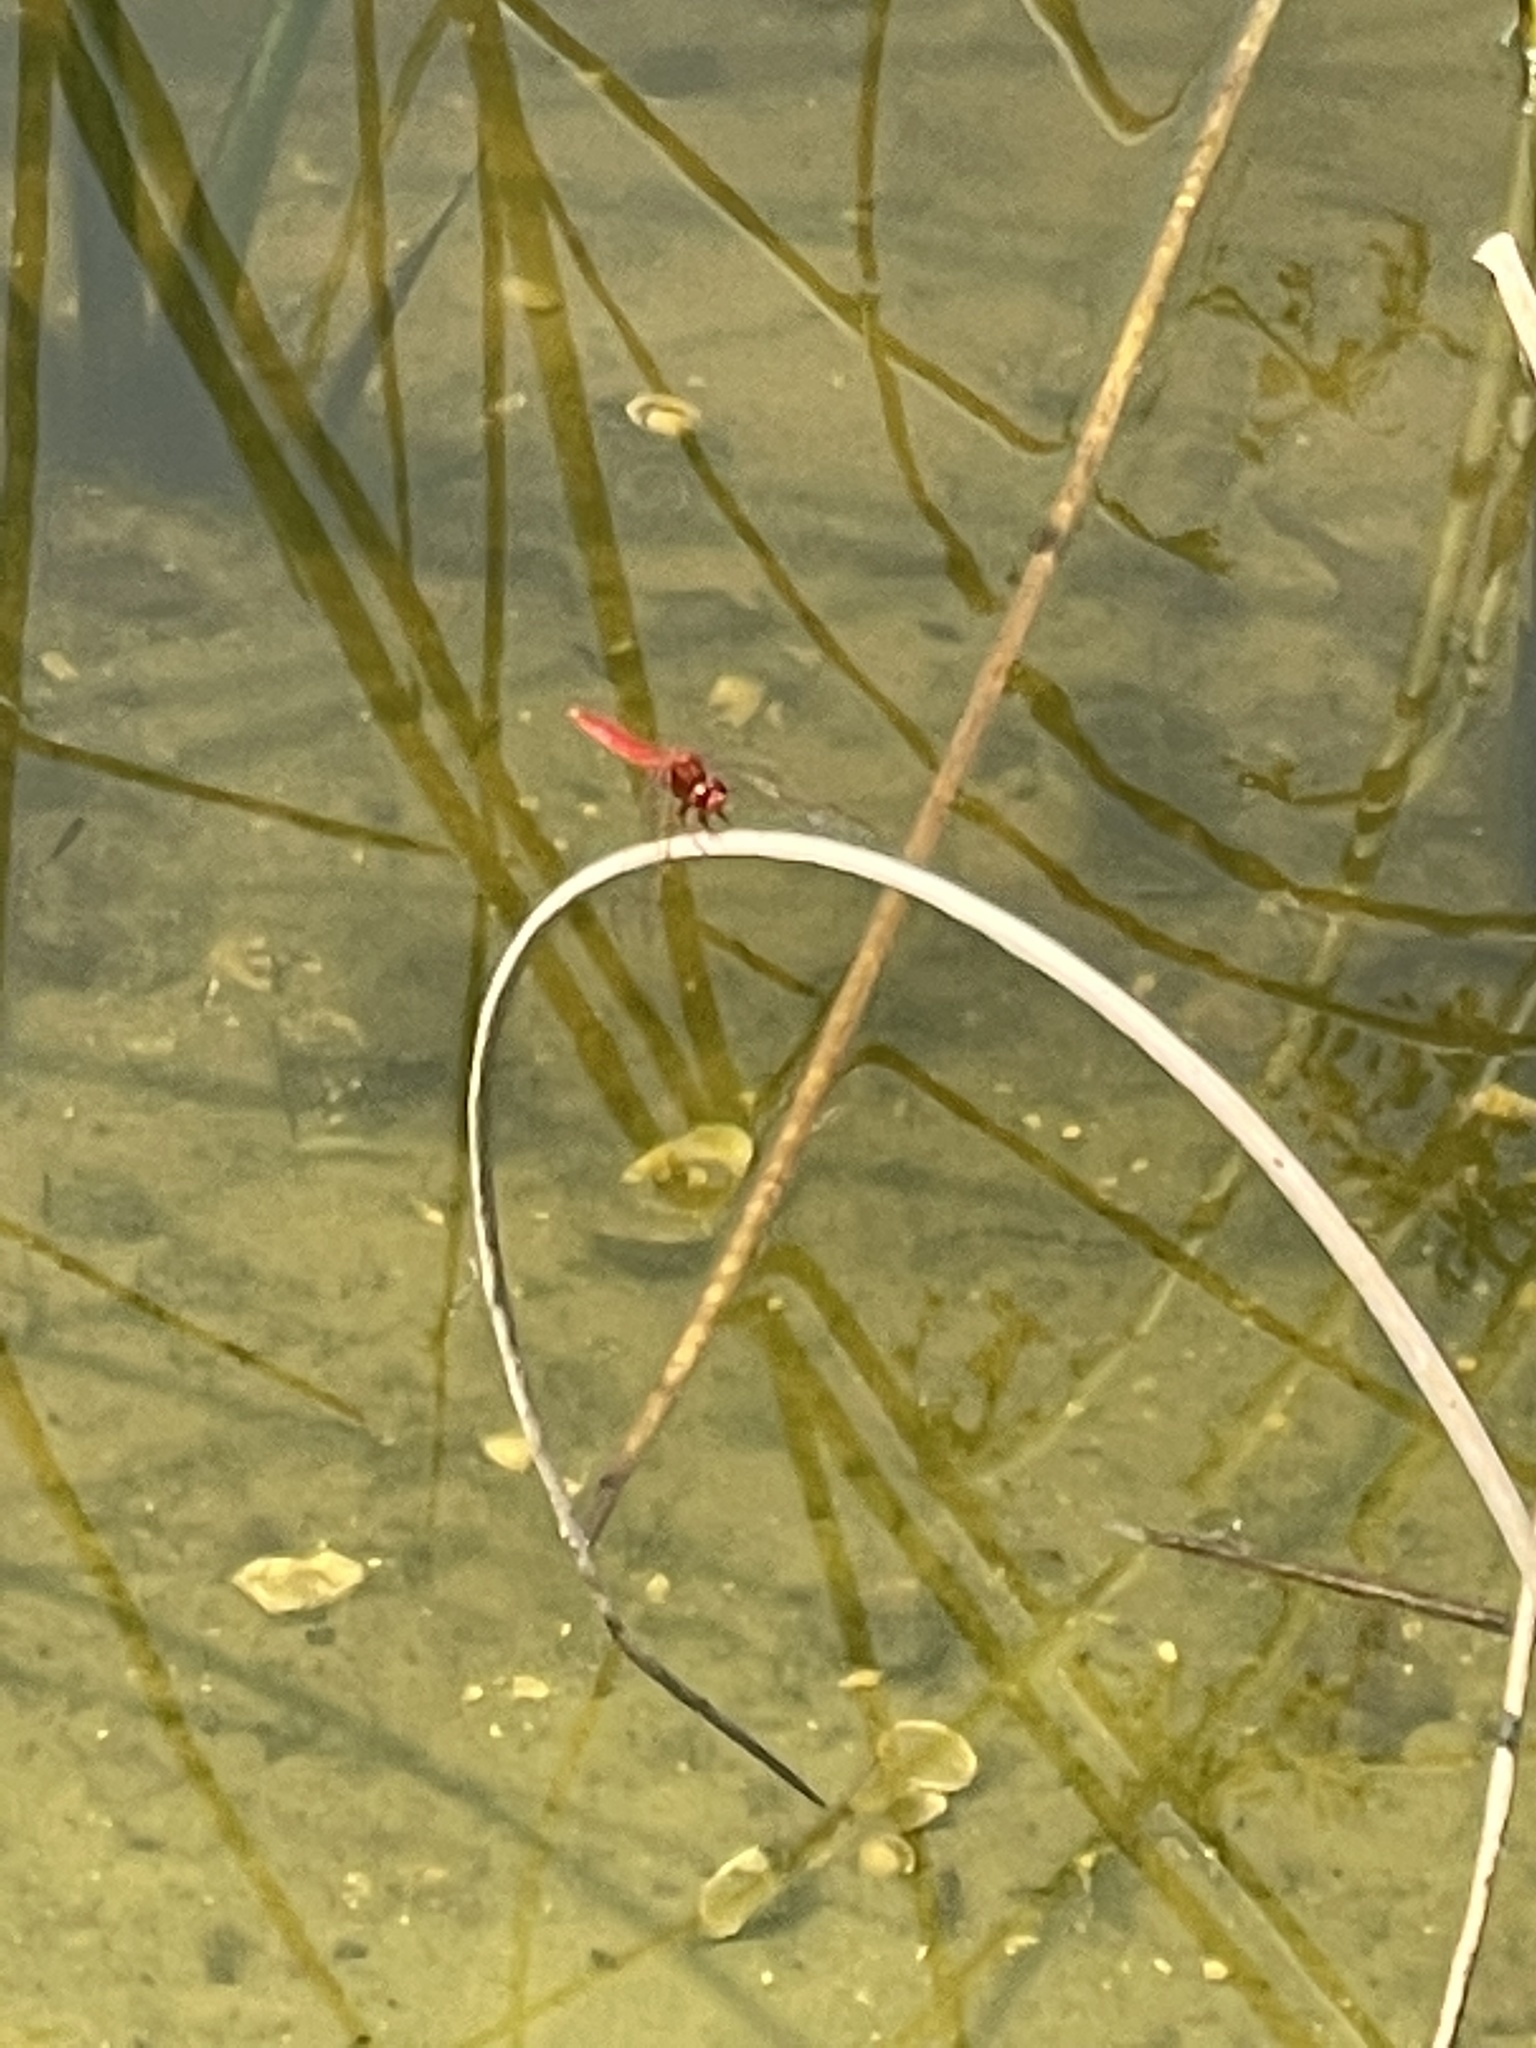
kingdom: Animalia
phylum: Arthropoda
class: Insecta
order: Odonata
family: Libellulidae
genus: Crocothemis
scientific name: Crocothemis servilia
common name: Scarlet skimmer
